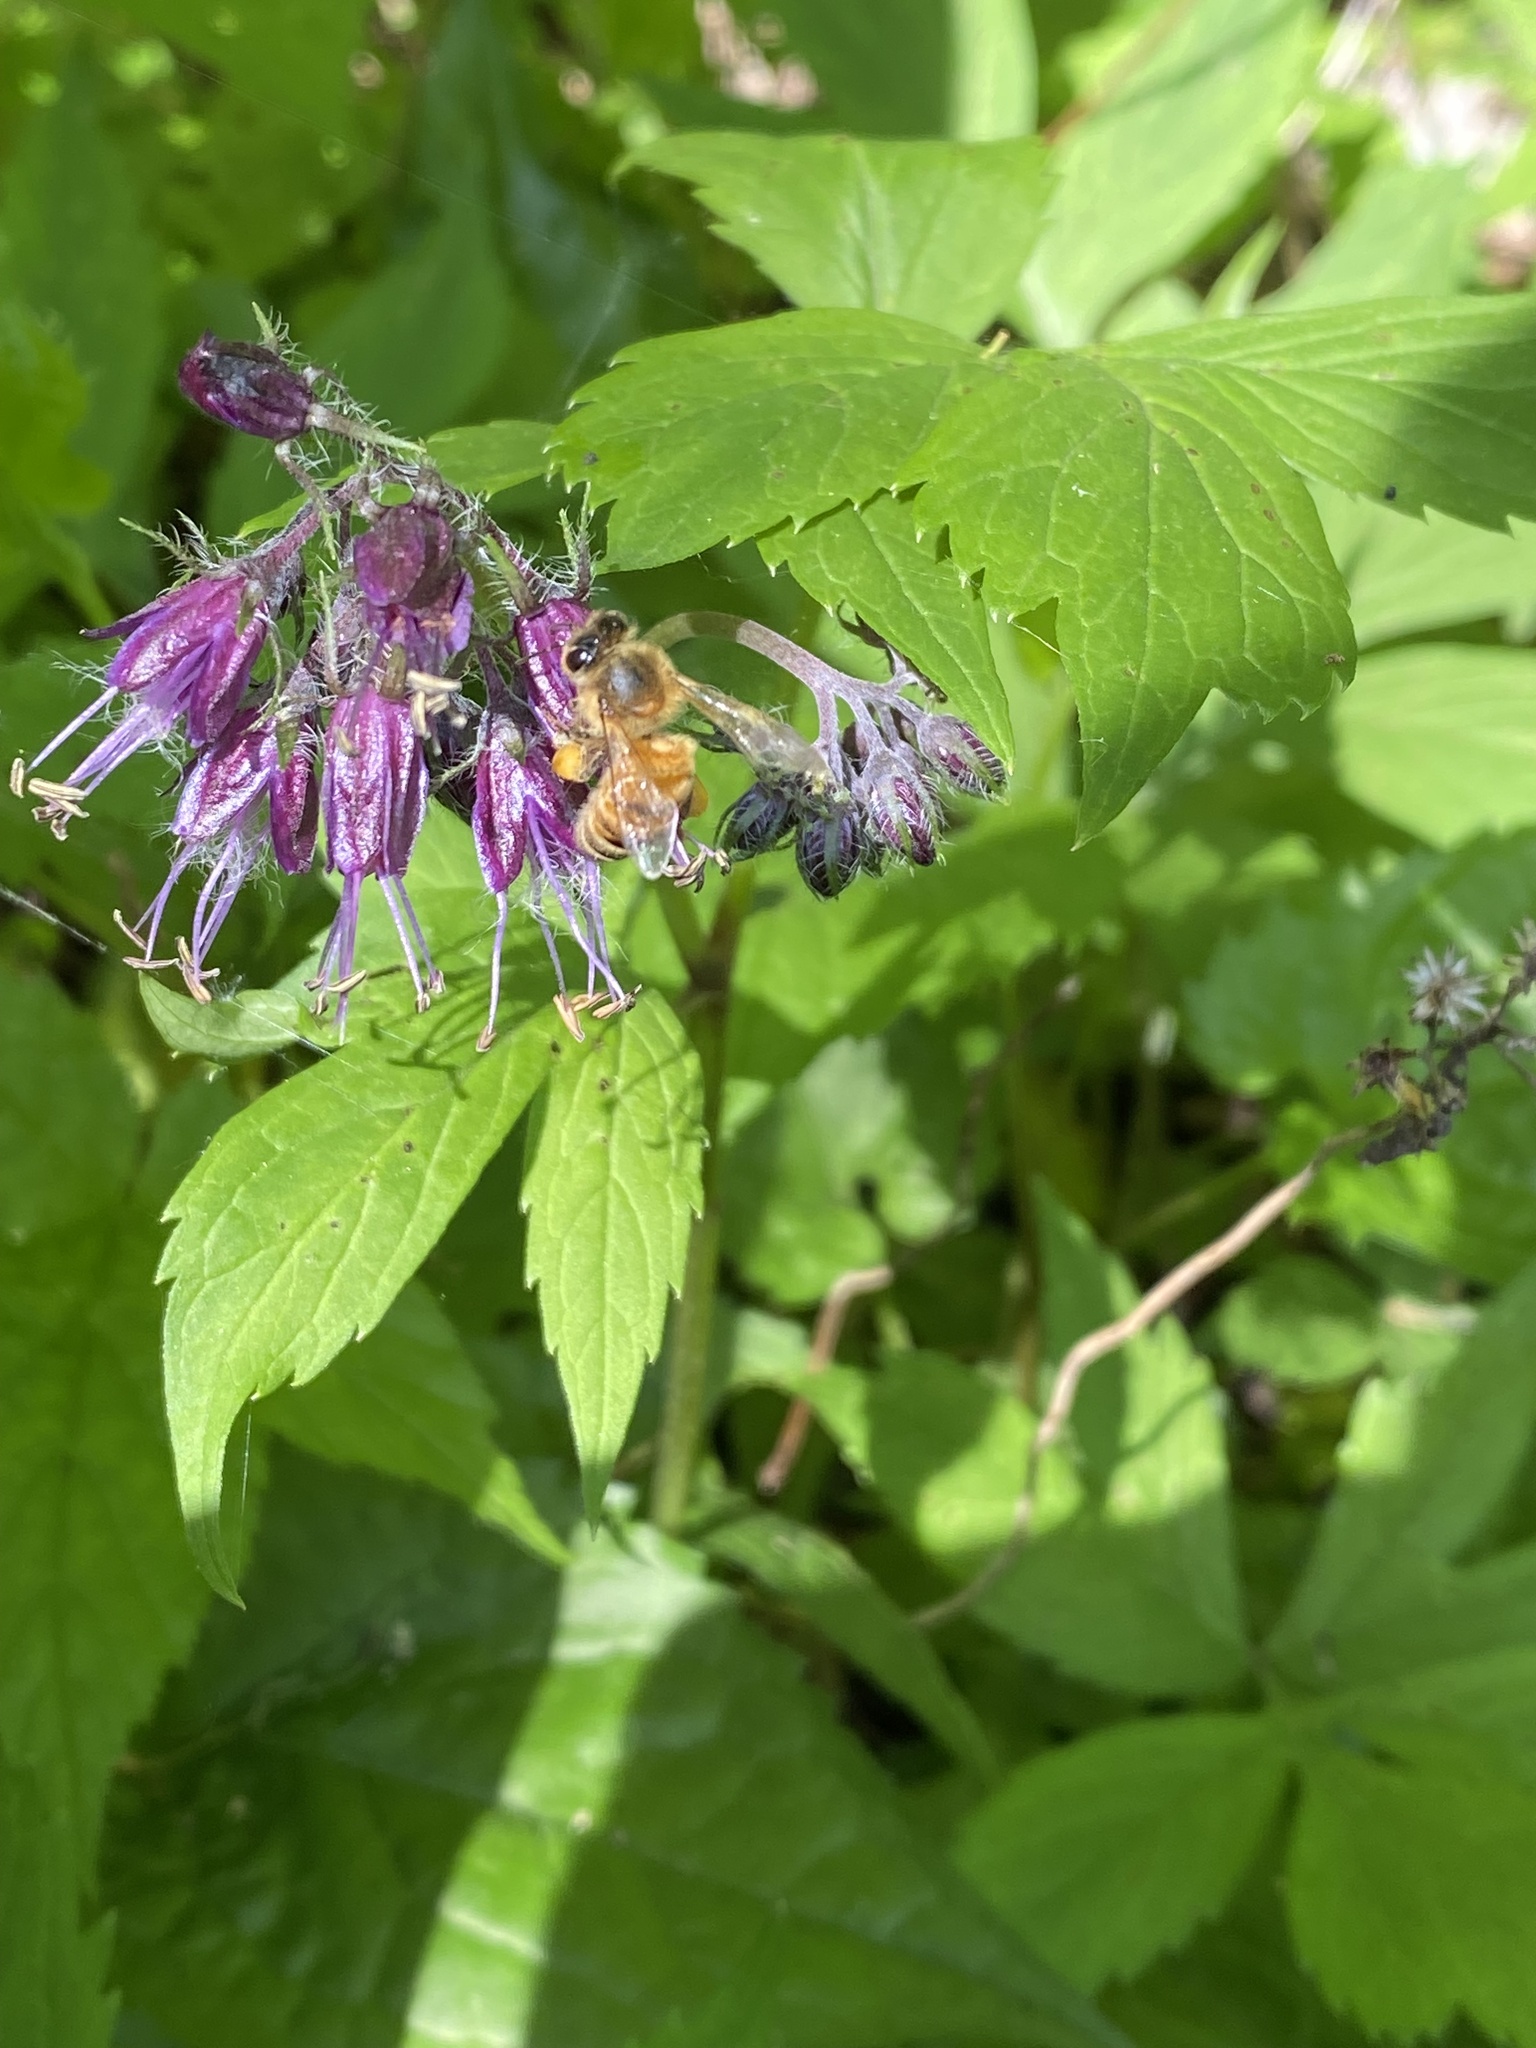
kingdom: Animalia
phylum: Arthropoda
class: Insecta
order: Hymenoptera
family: Apidae
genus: Apis
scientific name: Apis mellifera
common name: Honey bee
